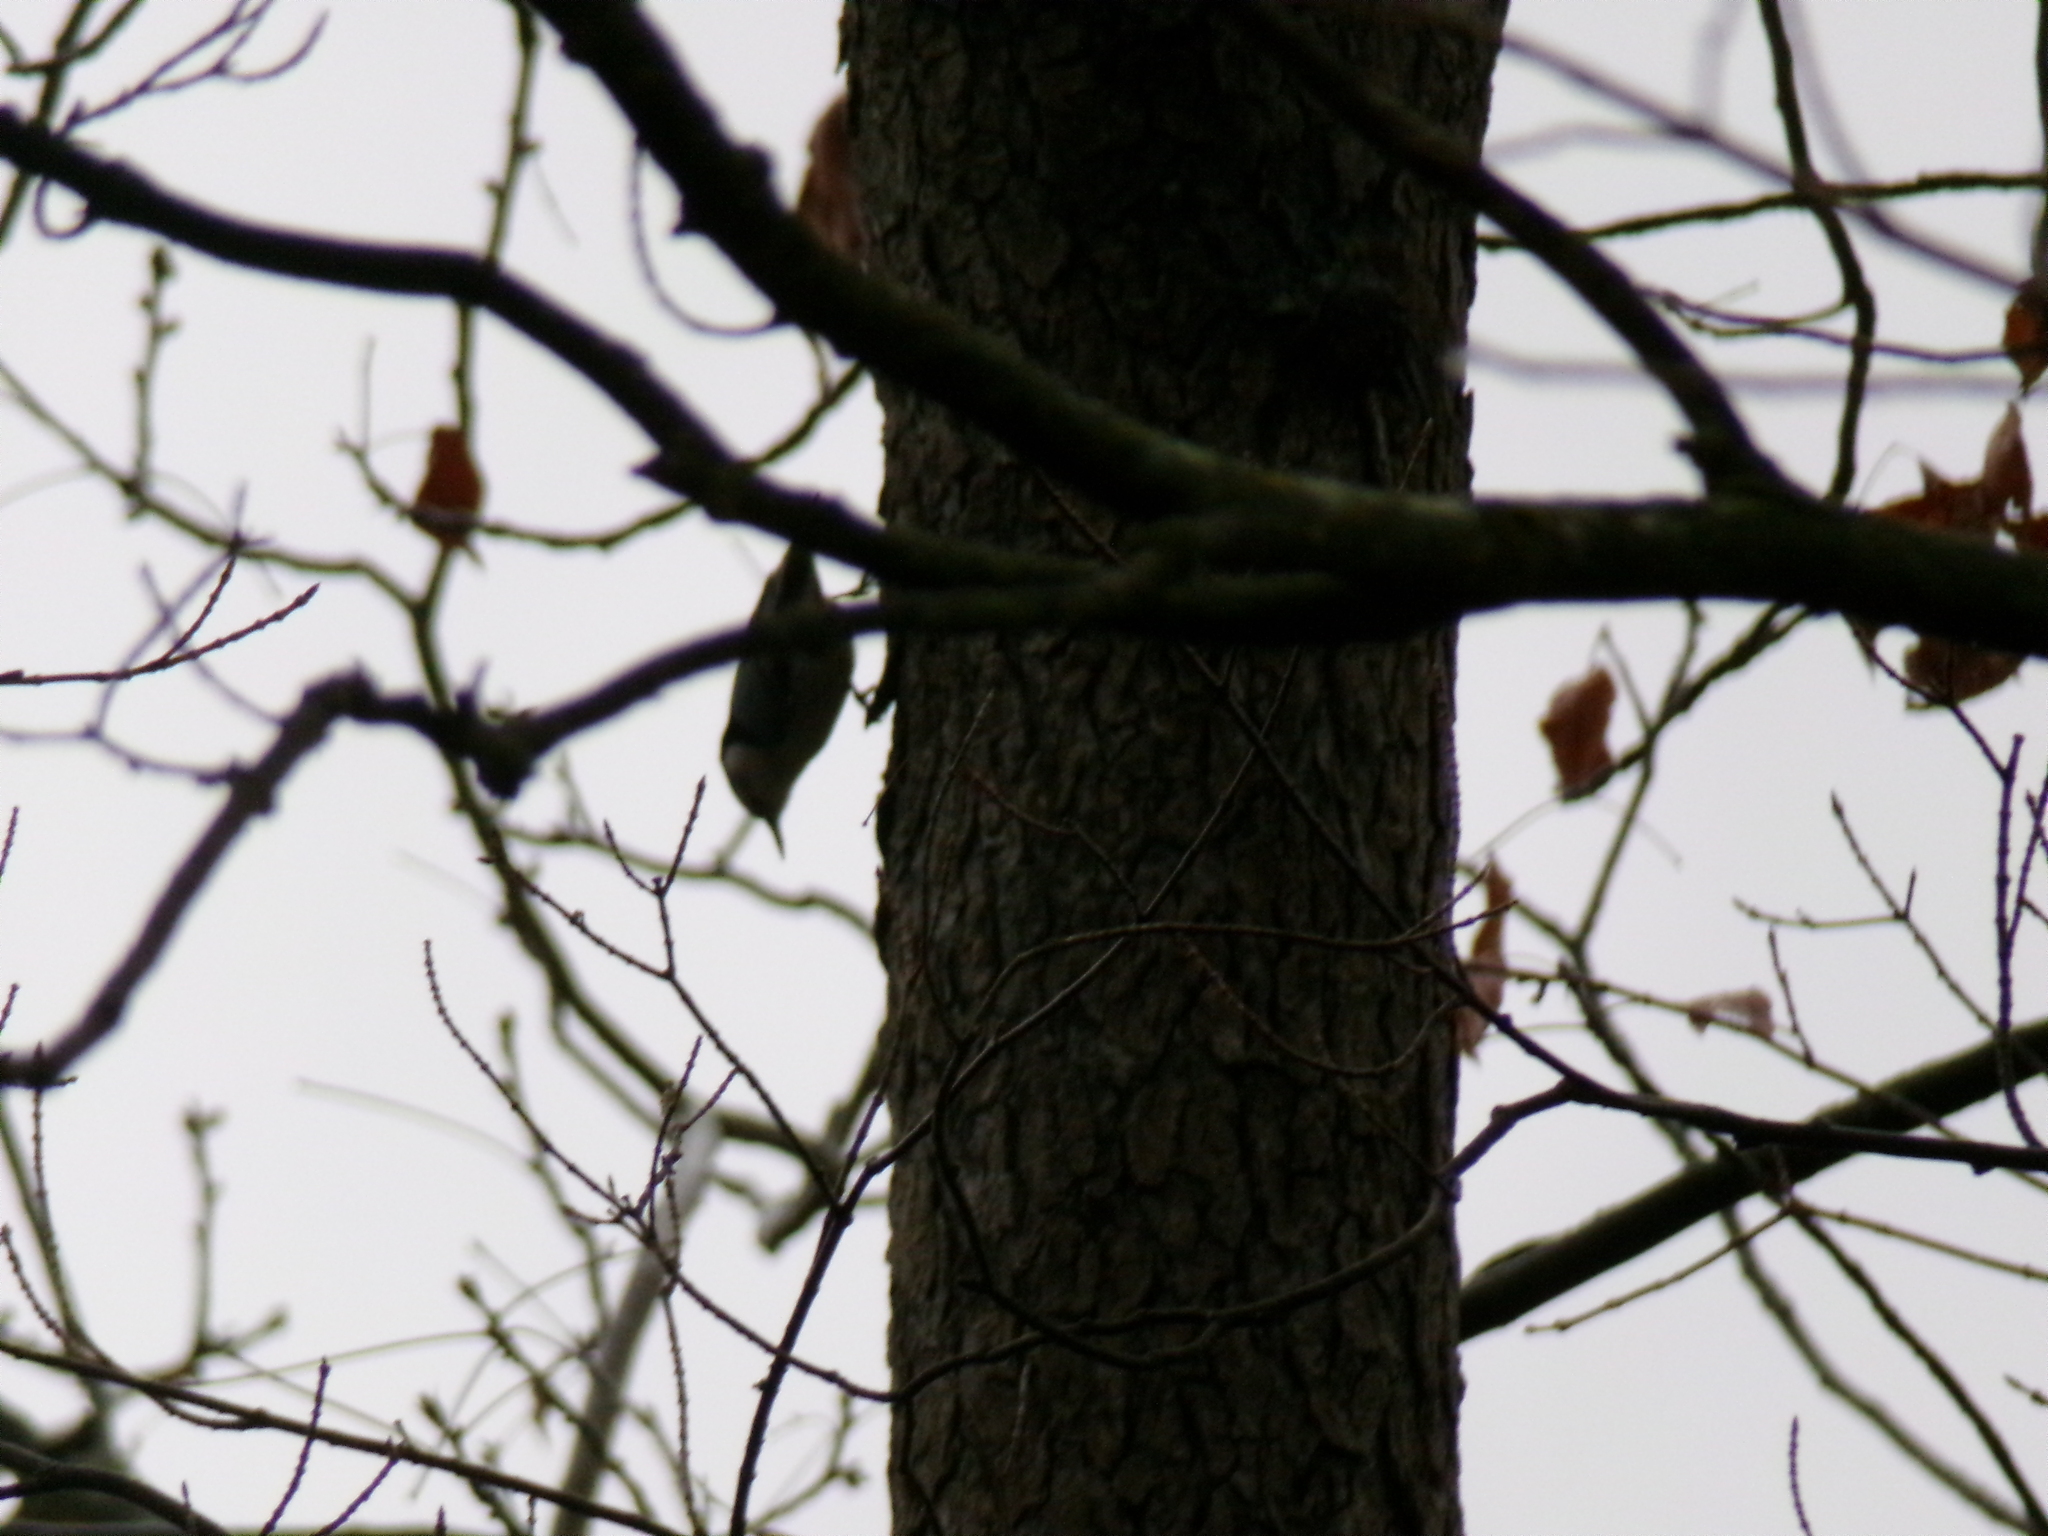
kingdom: Animalia
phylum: Chordata
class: Aves
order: Passeriformes
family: Sittidae
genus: Sitta
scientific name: Sitta carolinensis
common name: White-breasted nuthatch
